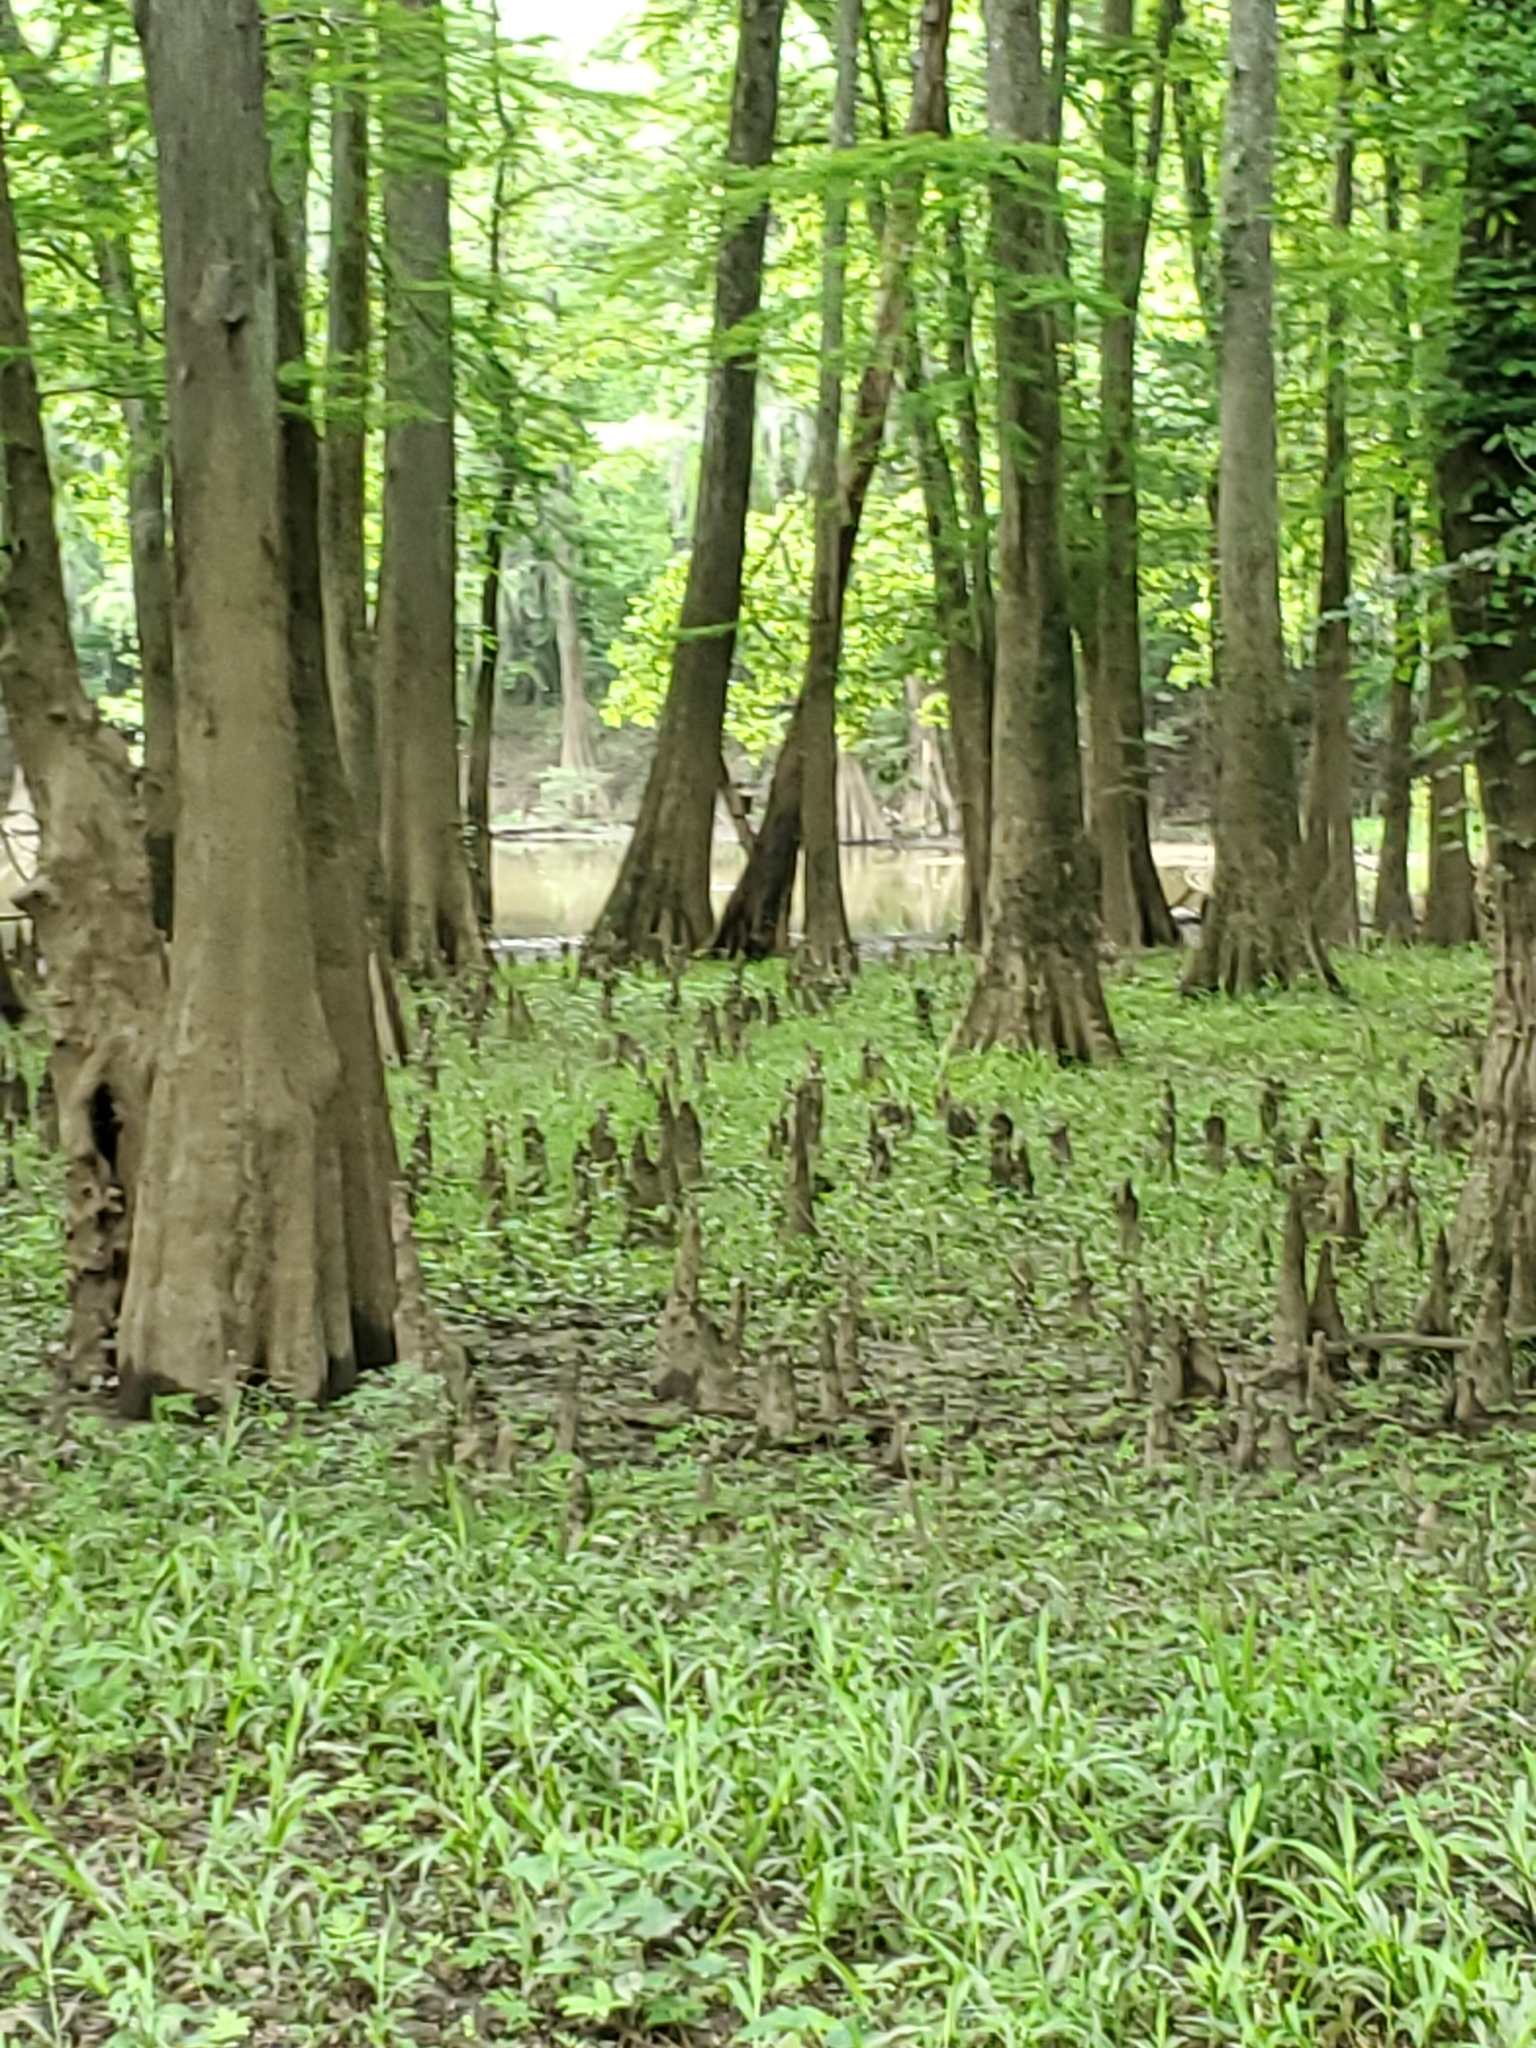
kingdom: Plantae
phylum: Tracheophyta
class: Pinopsida
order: Pinales
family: Cupressaceae
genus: Taxodium
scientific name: Taxodium distichum
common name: Bald cypress
